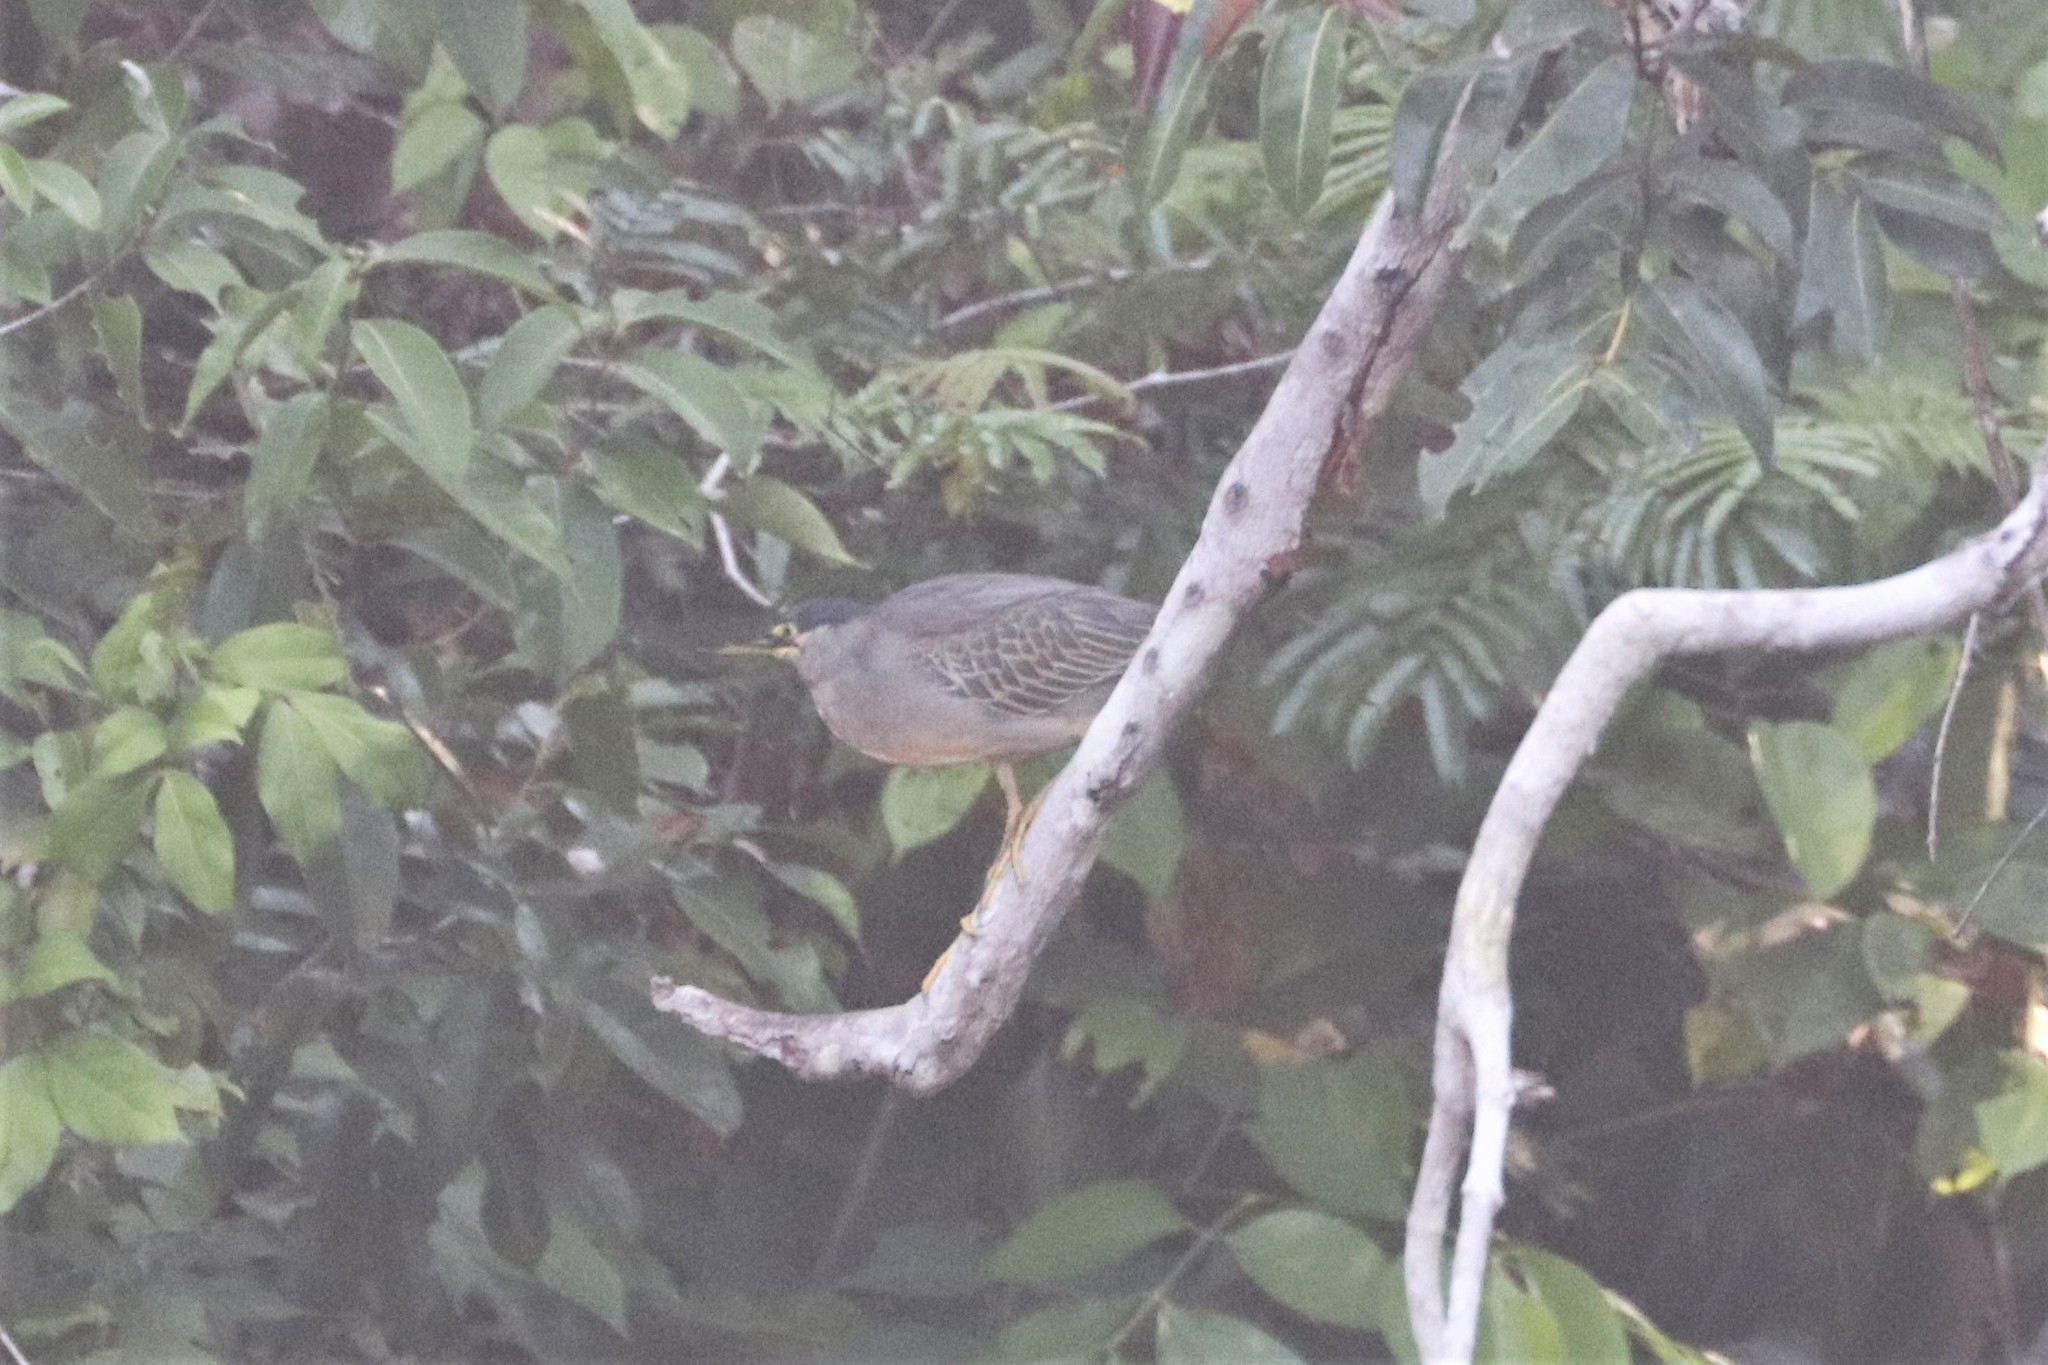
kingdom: Animalia
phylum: Chordata
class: Aves
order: Pelecaniformes
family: Ardeidae
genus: Butorides
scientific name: Butorides striata
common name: Striated heron
